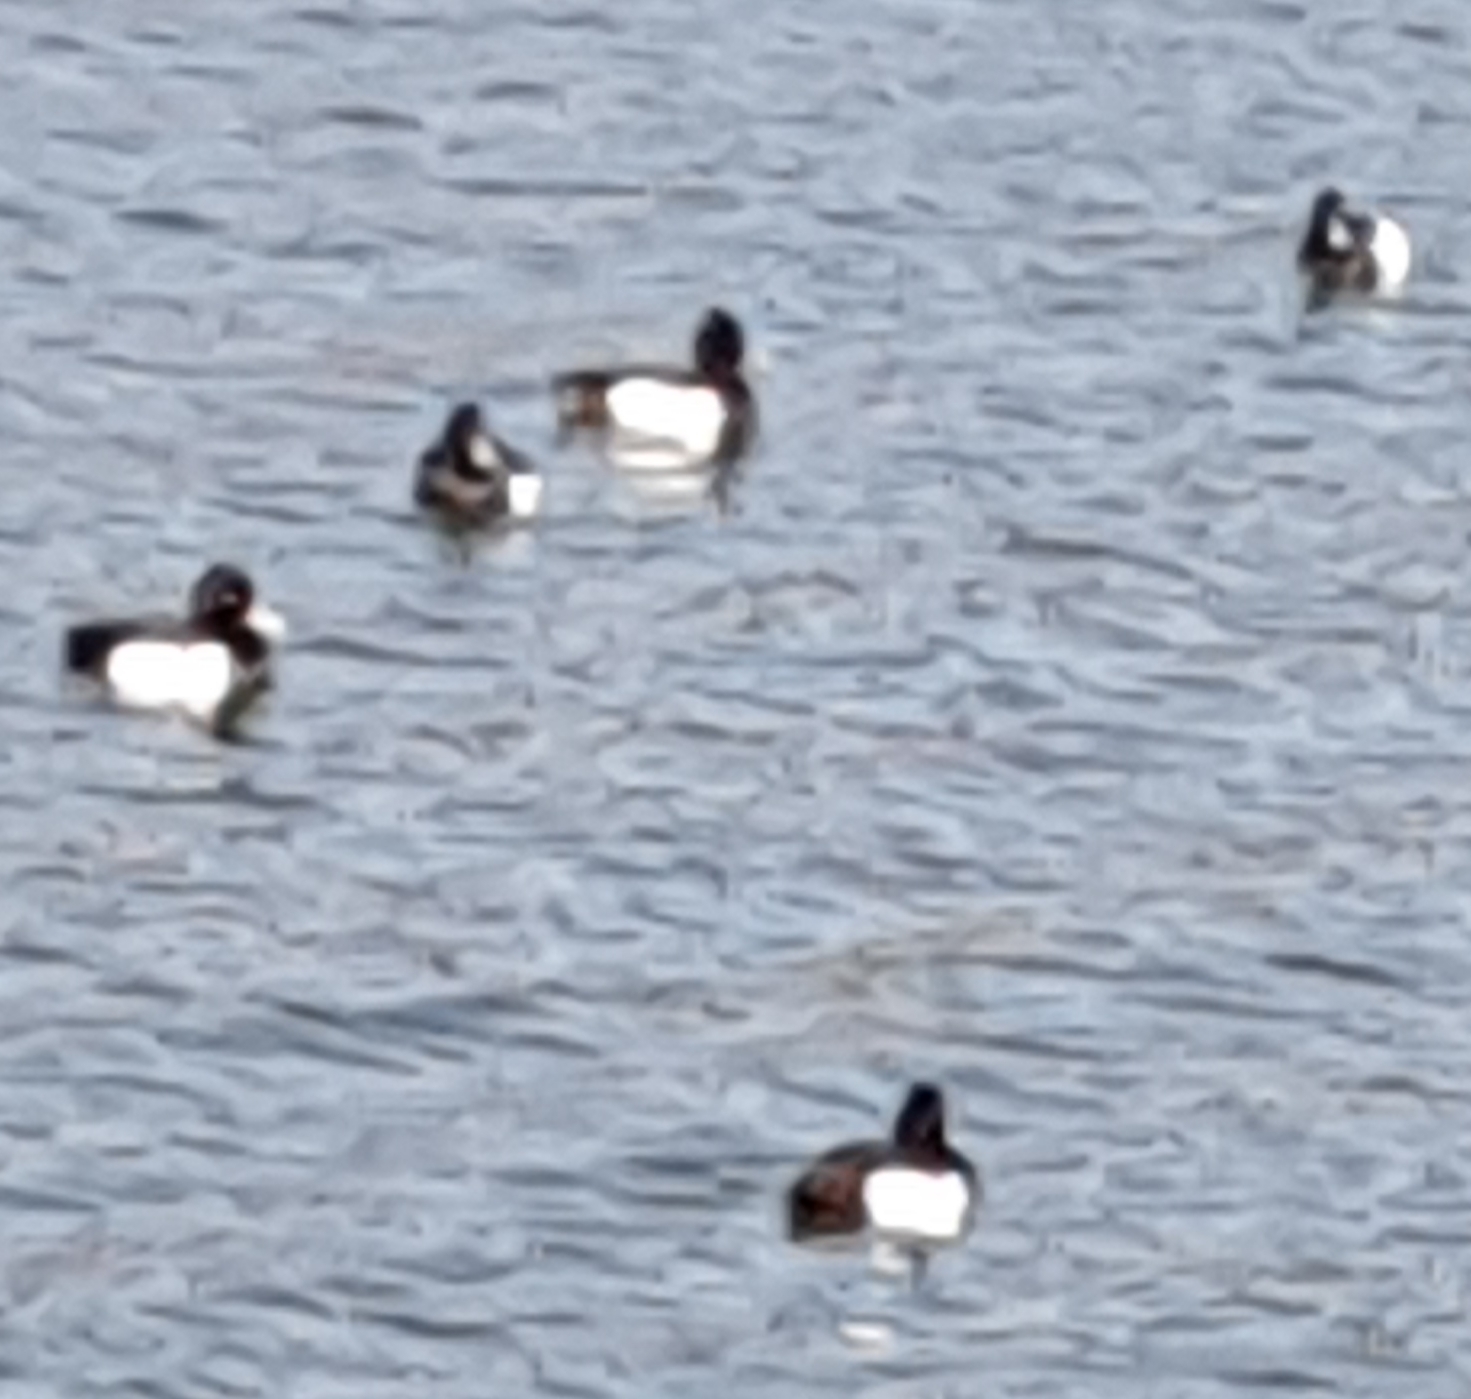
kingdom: Animalia
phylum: Chordata
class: Aves
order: Anseriformes
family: Anatidae
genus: Aythya
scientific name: Aythya fuligula
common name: Tufted duck
